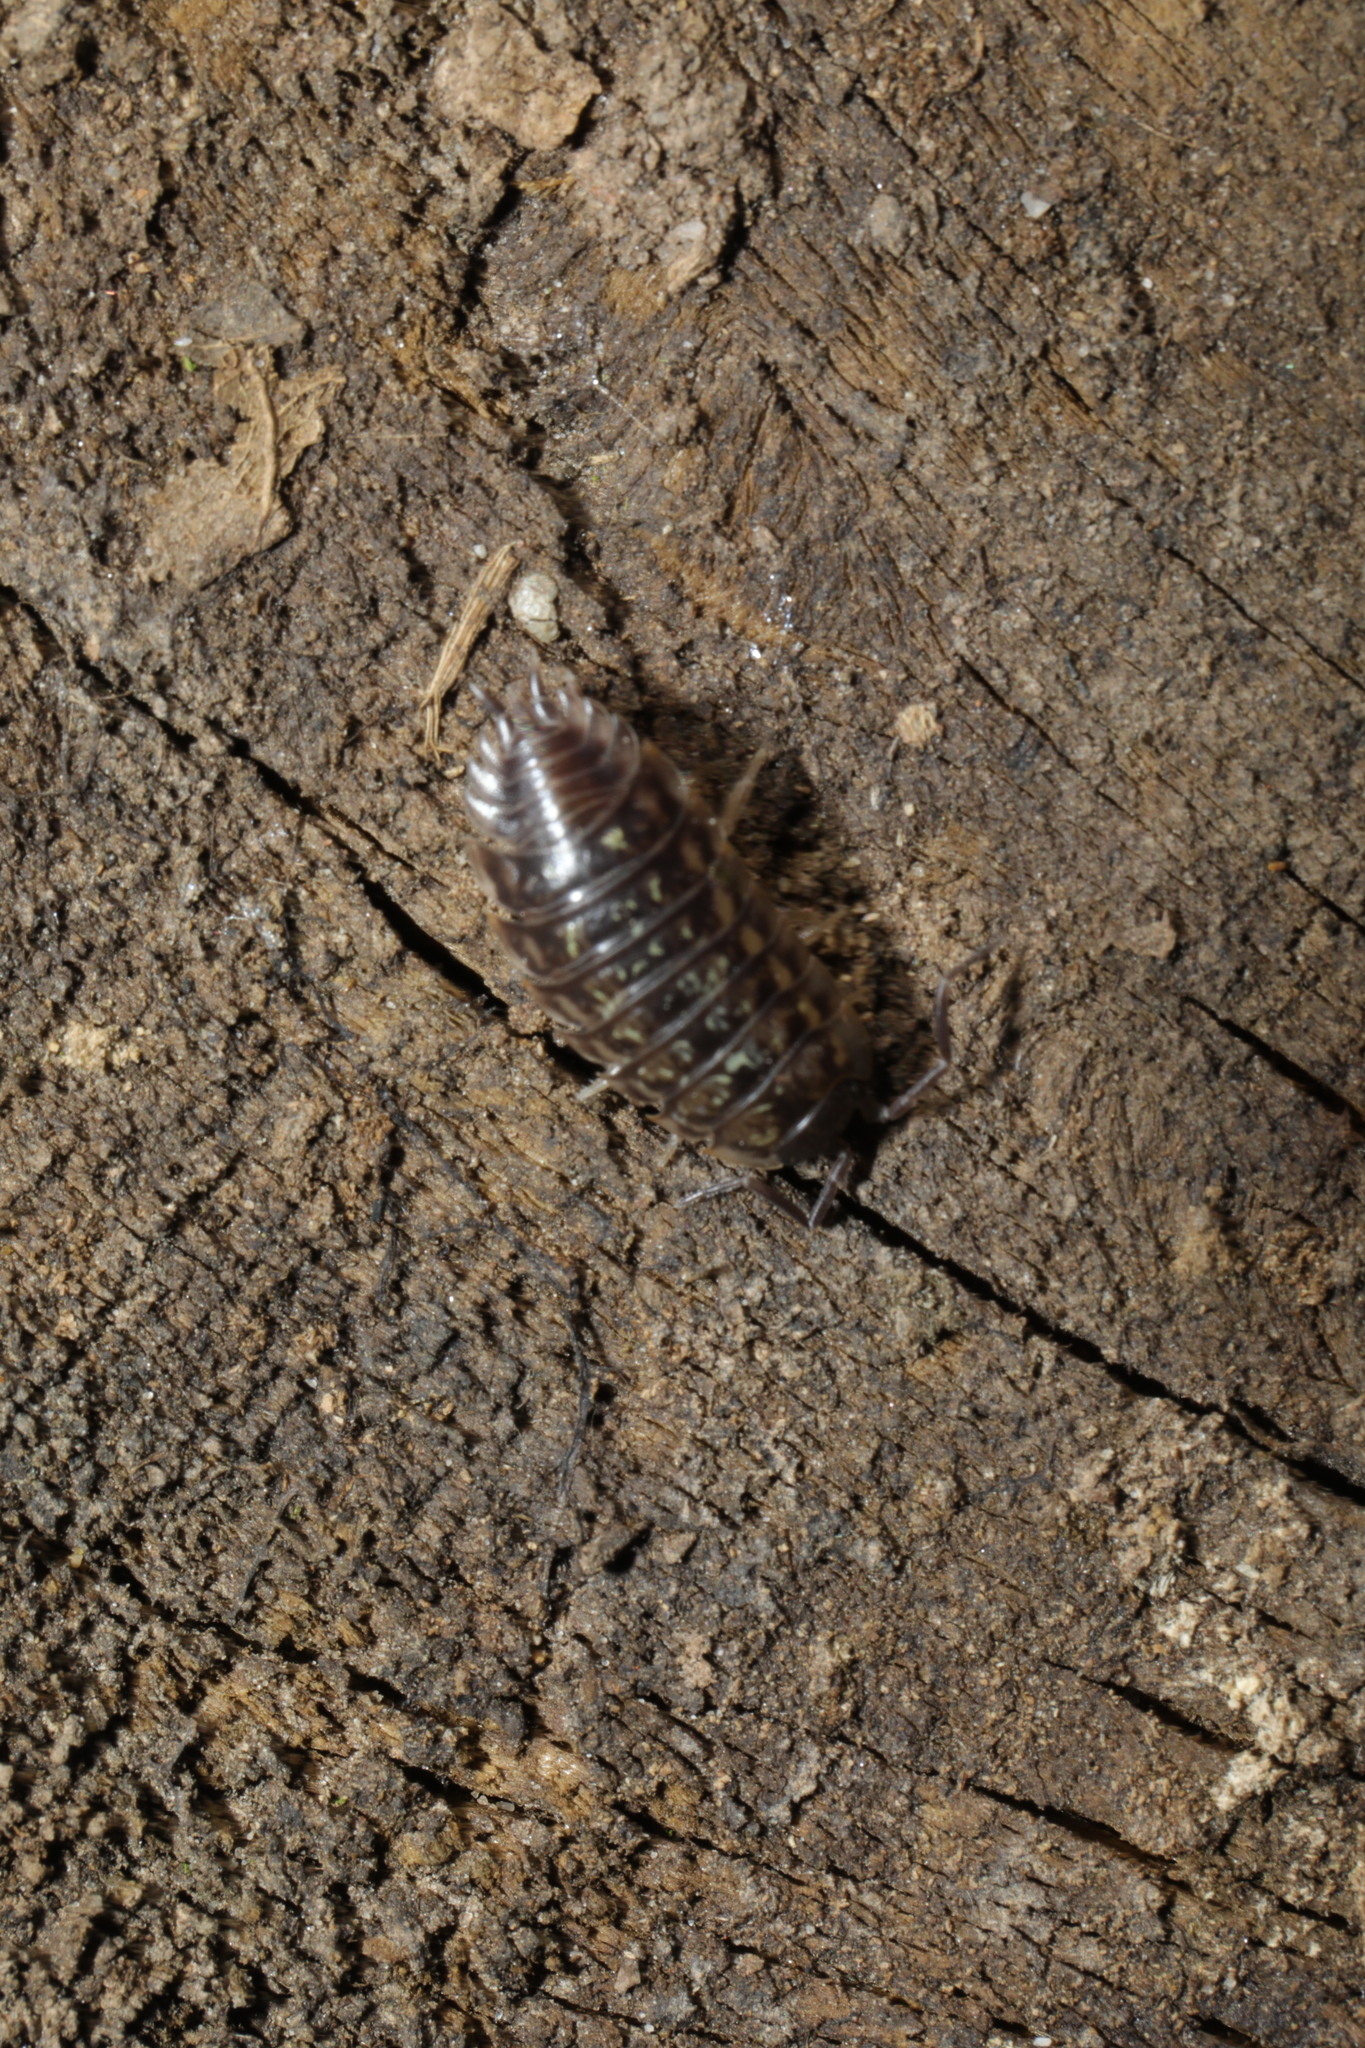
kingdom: Animalia
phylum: Arthropoda
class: Malacostraca
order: Isopoda
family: Oniscidae
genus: Oniscus
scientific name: Oniscus asellus
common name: Common shiny woodlouse
